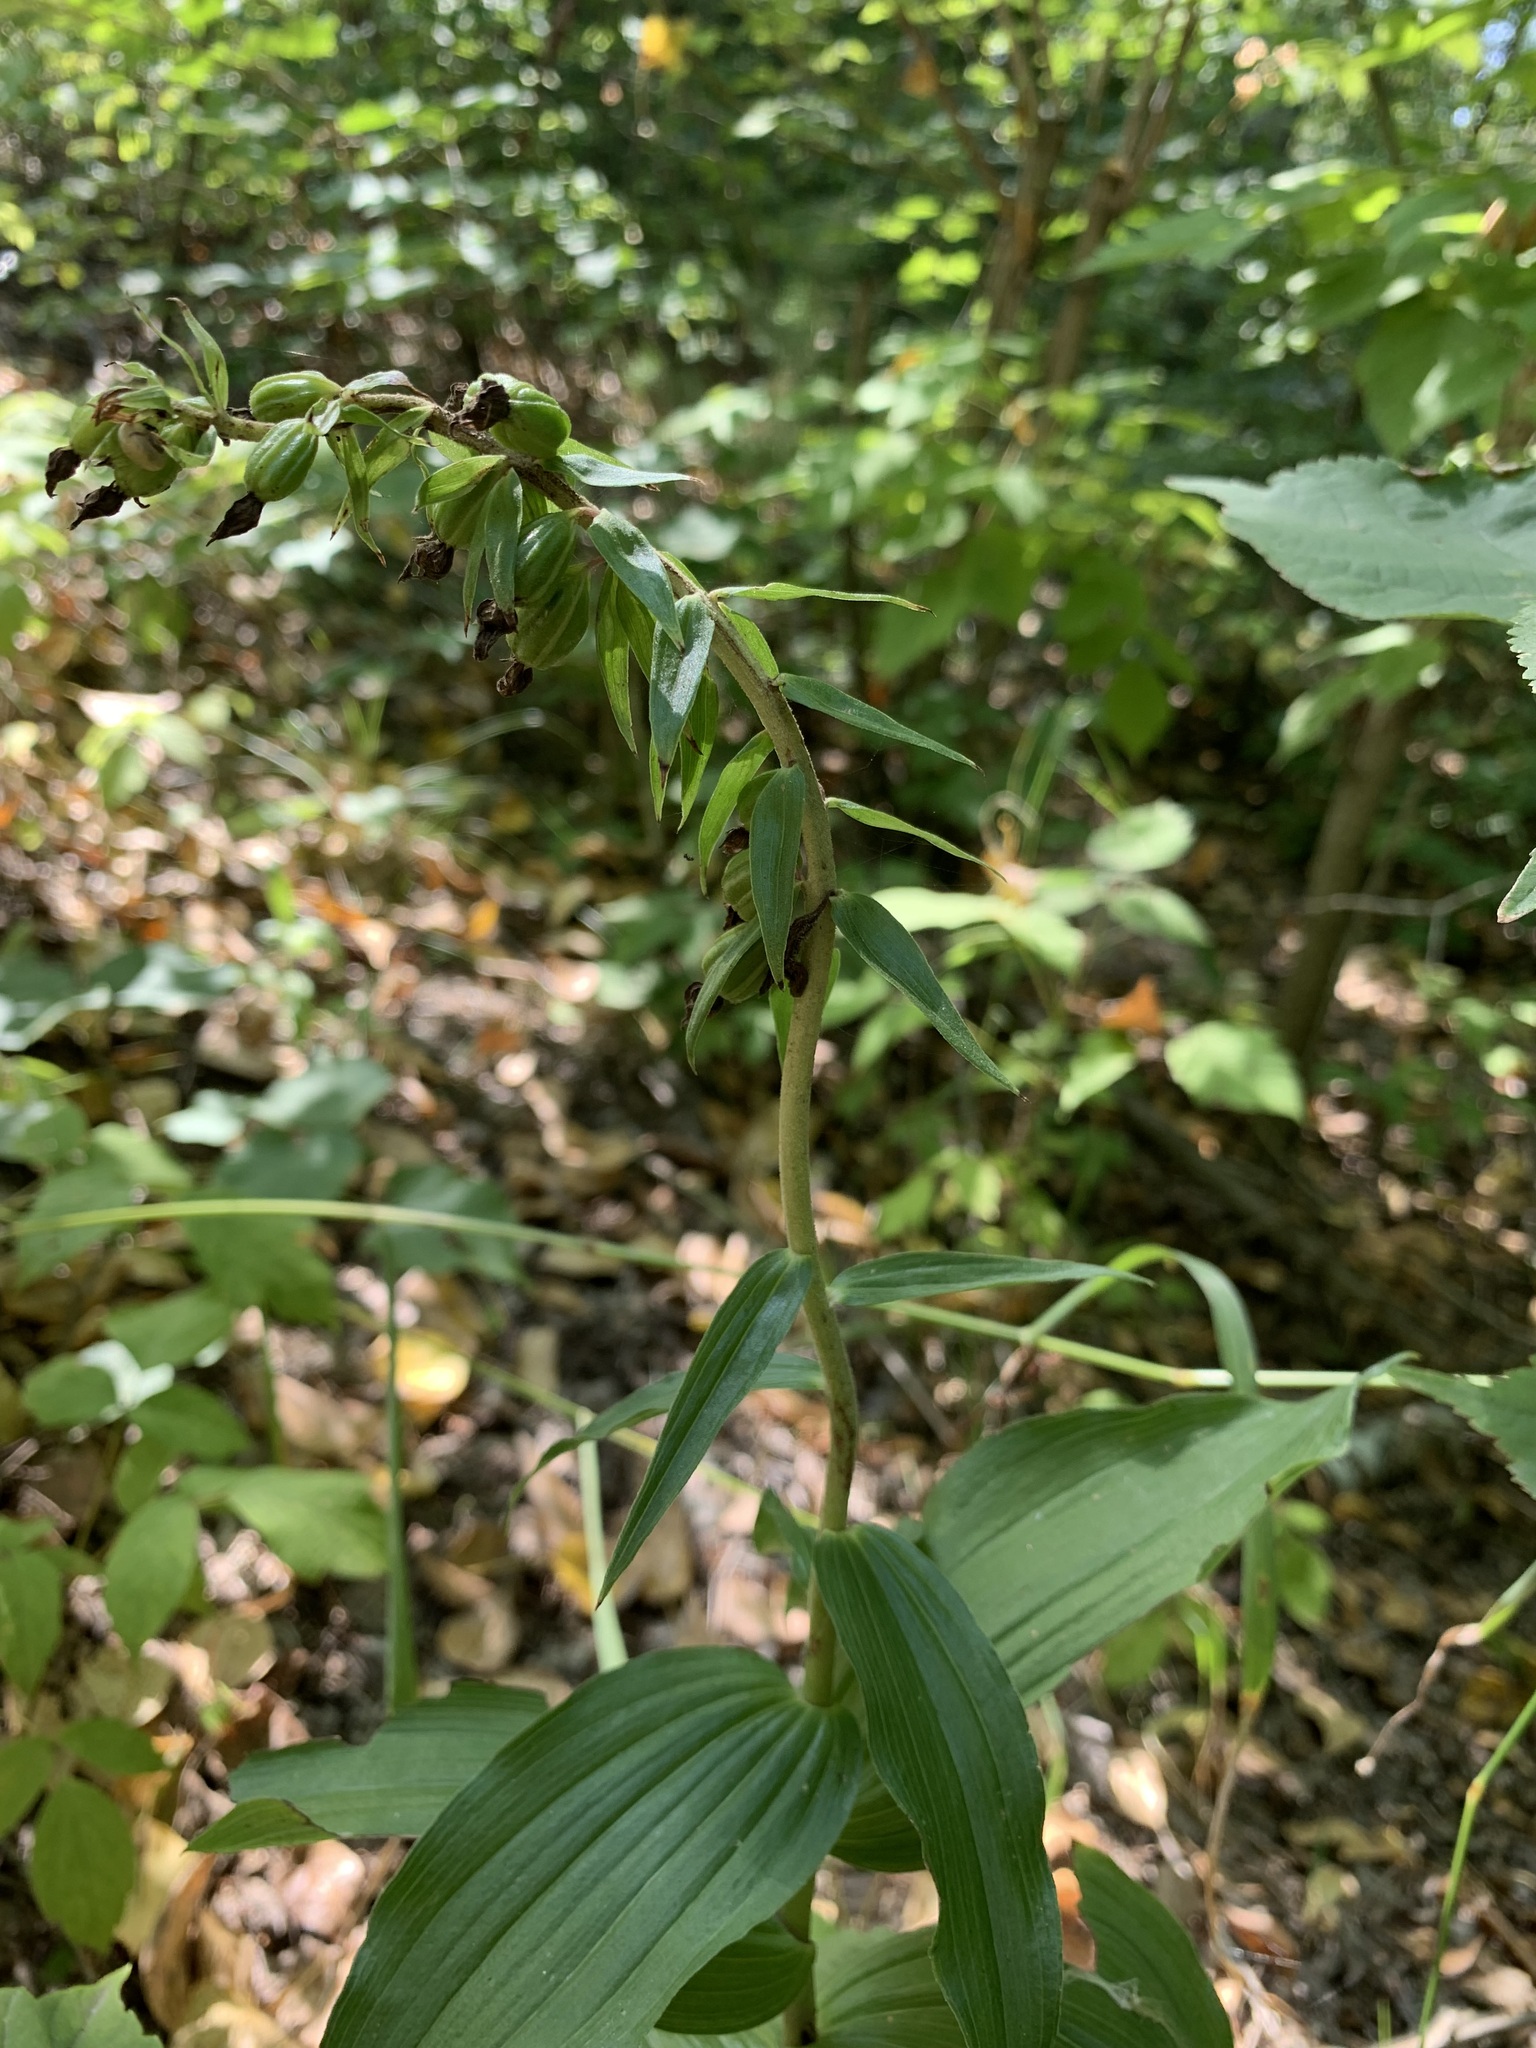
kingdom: Plantae
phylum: Tracheophyta
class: Liliopsida
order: Asparagales
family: Orchidaceae
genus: Epipactis
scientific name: Epipactis helleborine
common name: Broad-leaved helleborine
